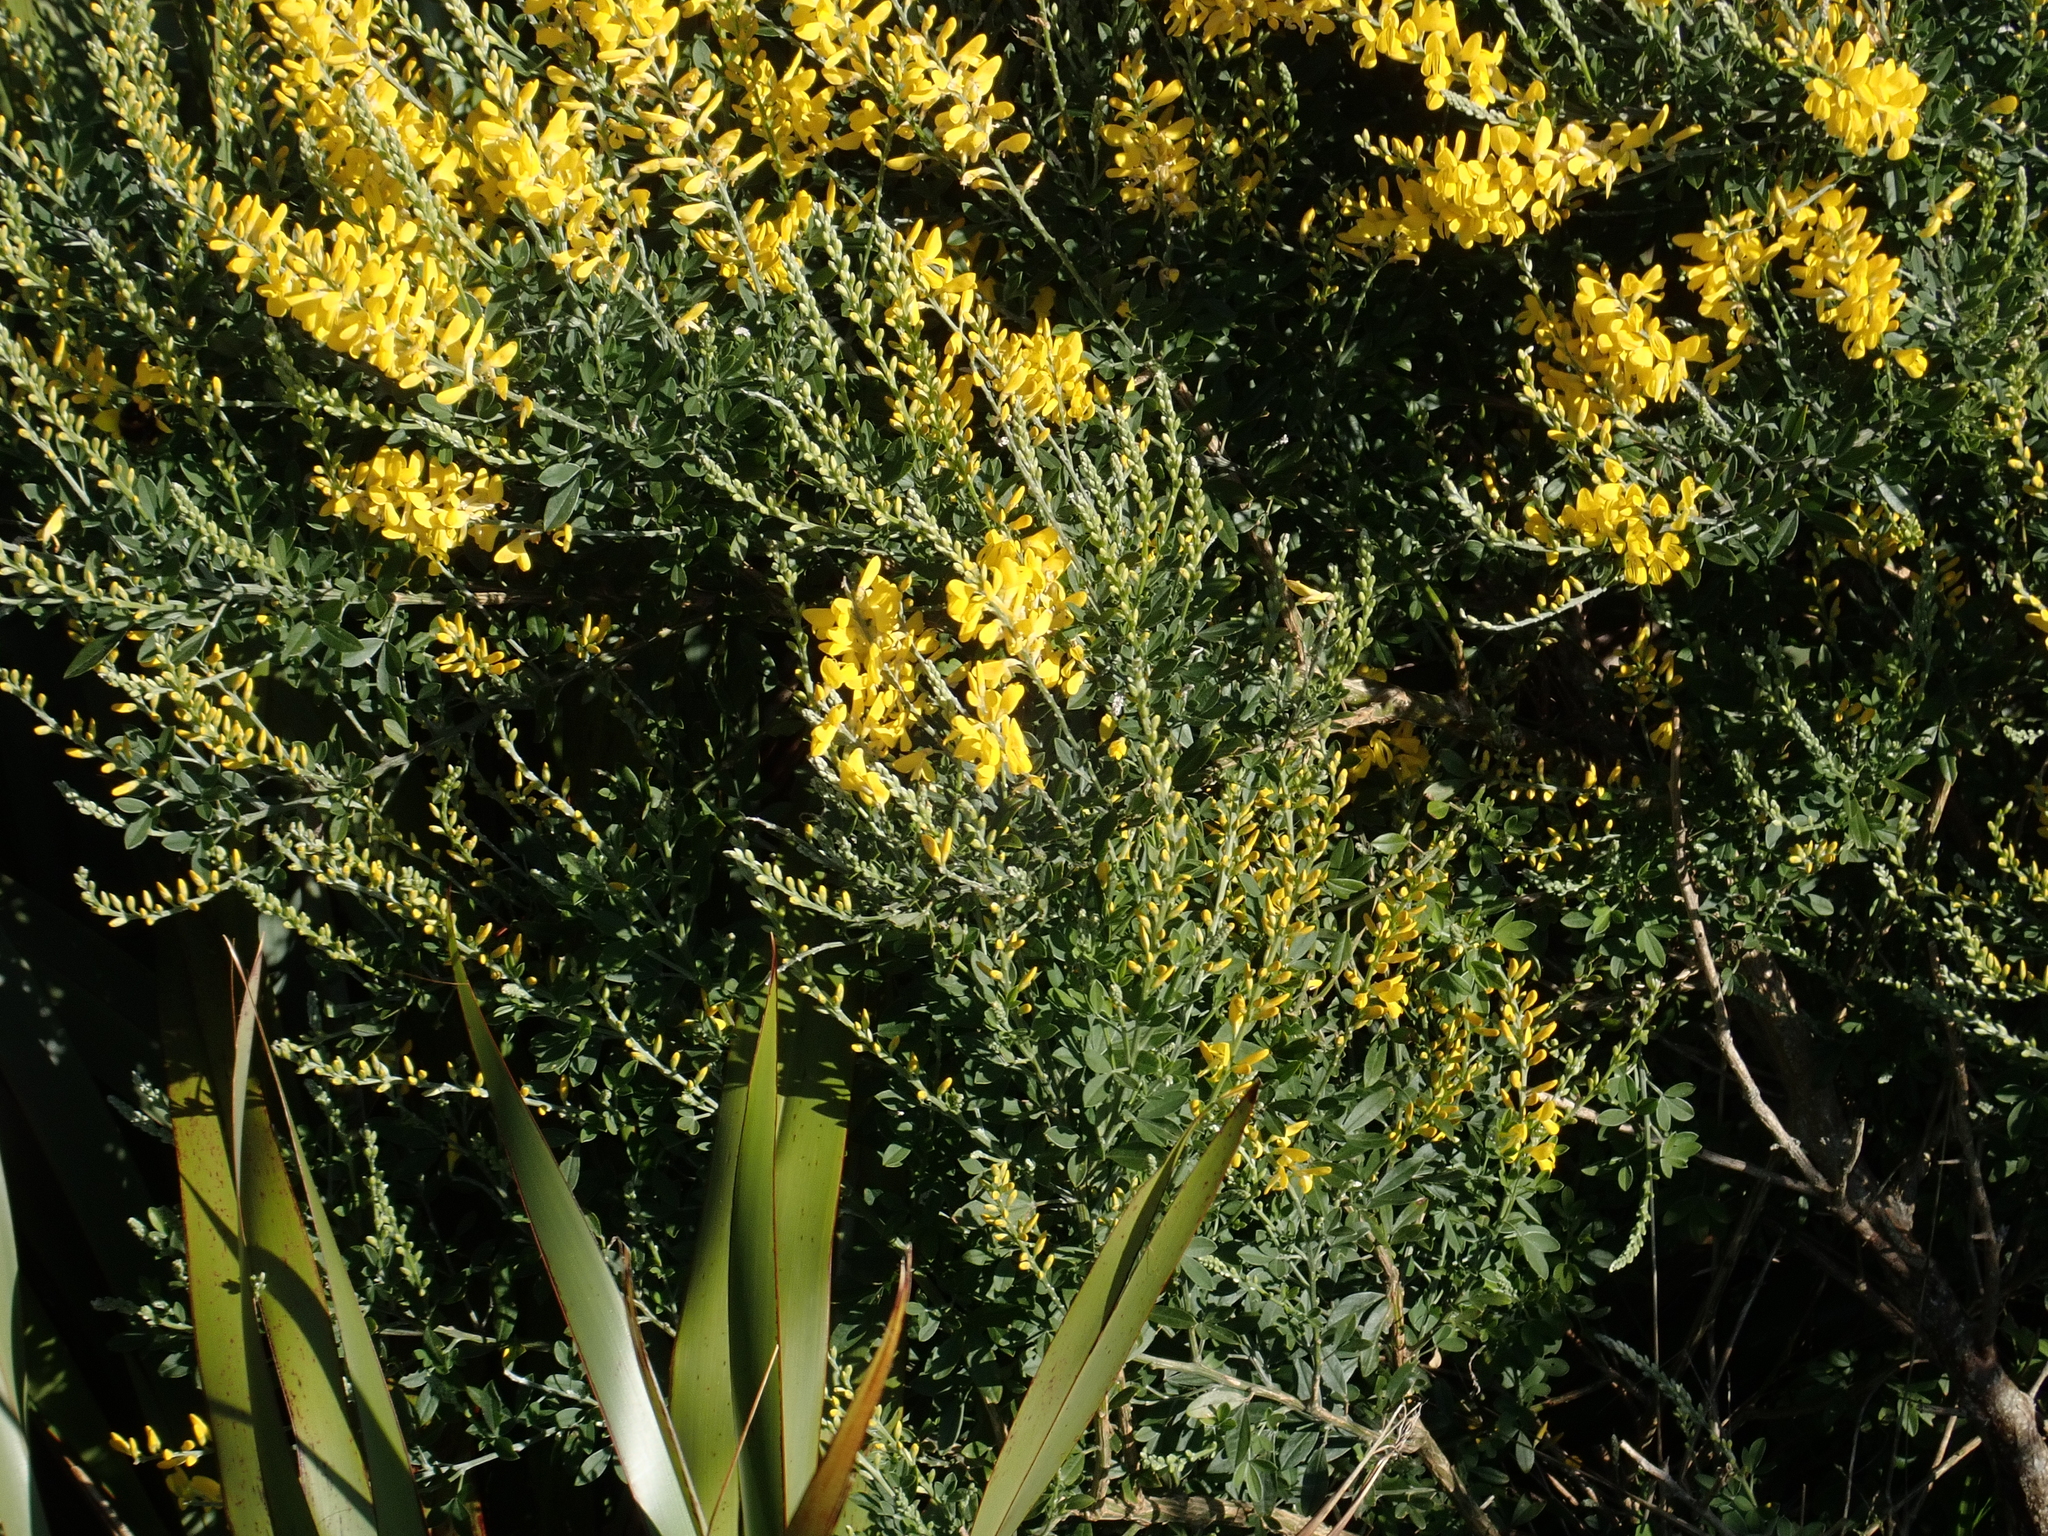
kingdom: Plantae
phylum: Tracheophyta
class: Magnoliopsida
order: Fabales
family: Fabaceae
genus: Genista
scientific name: Genista stenopetala
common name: Leafy broom
